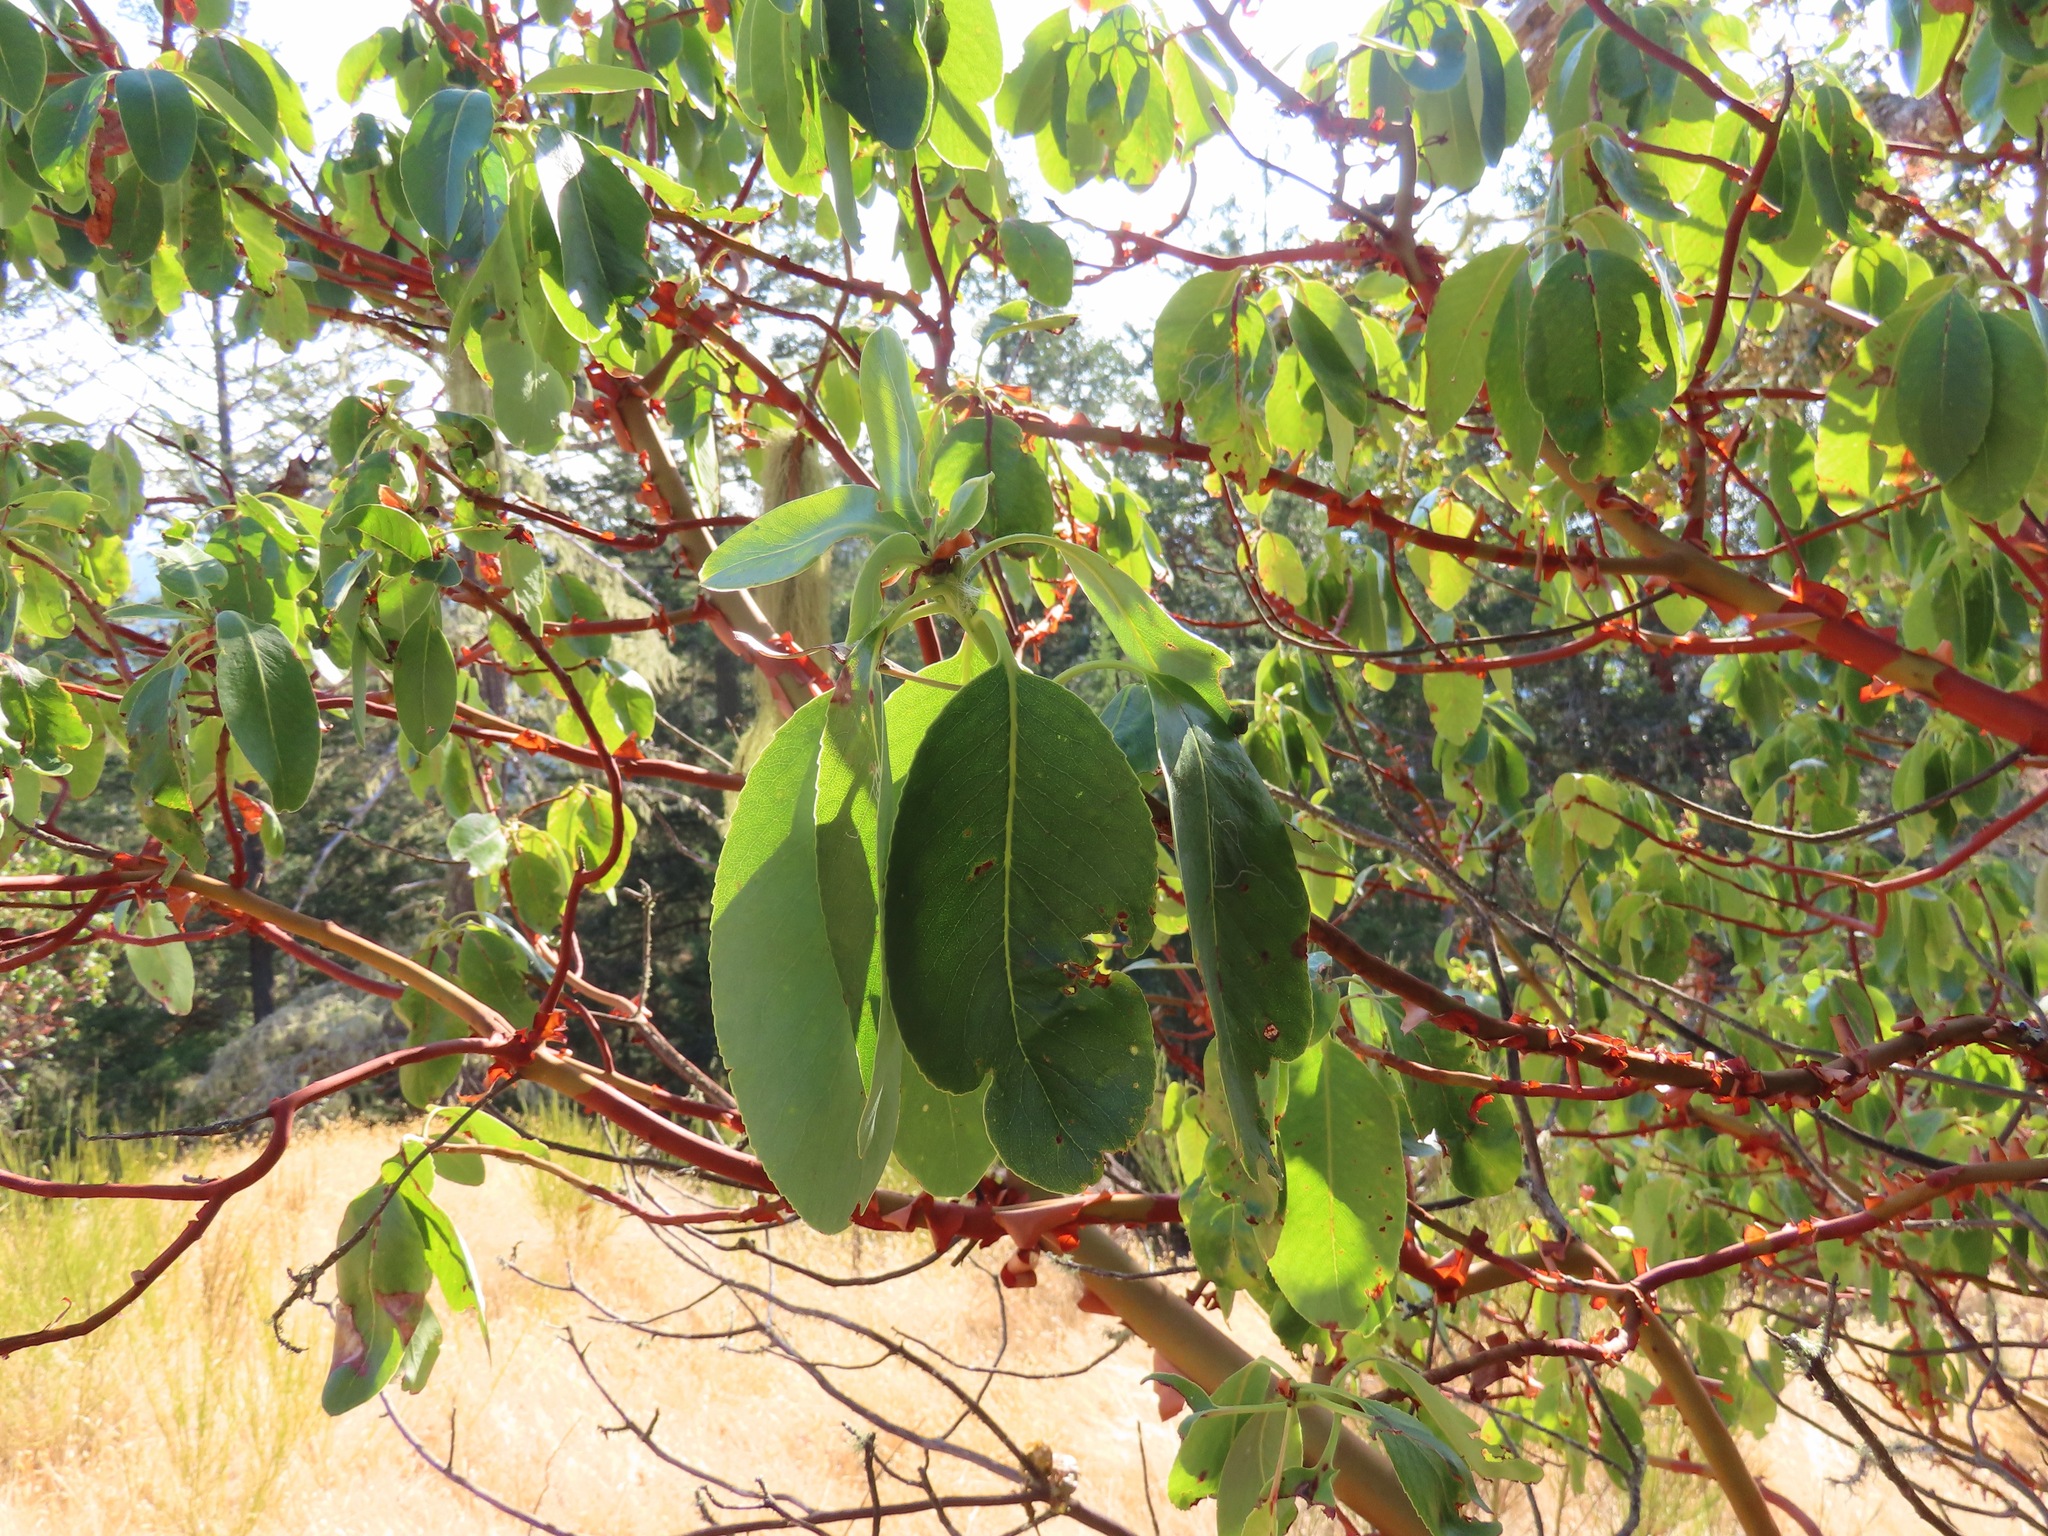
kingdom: Plantae
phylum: Tracheophyta
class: Magnoliopsida
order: Ericales
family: Ericaceae
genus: Arbutus
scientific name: Arbutus menziesii
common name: Pacific madrone
